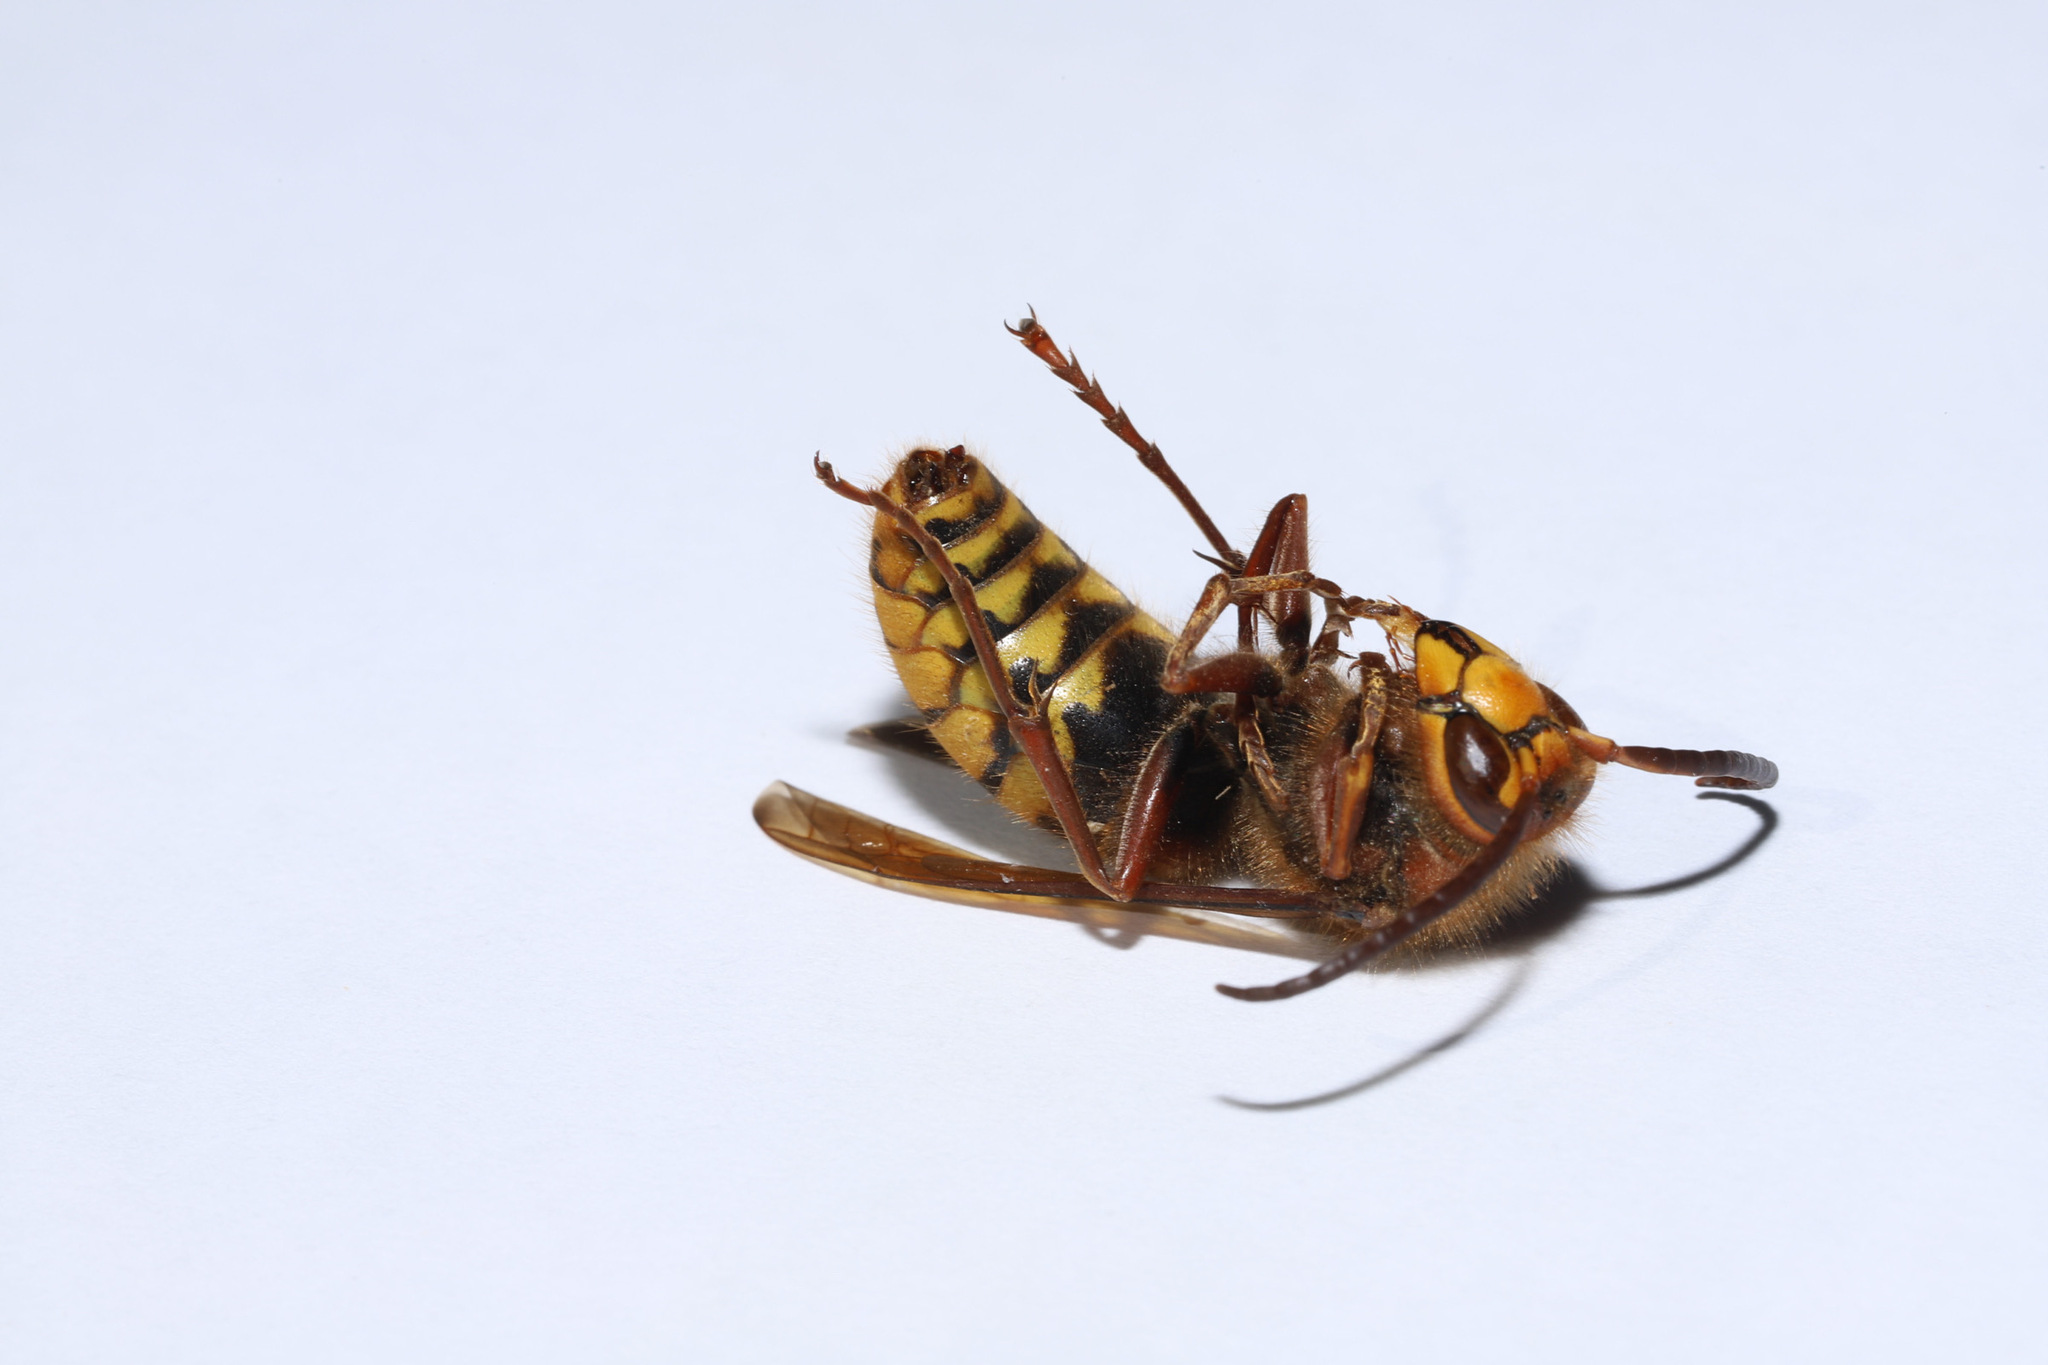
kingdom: Animalia
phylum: Arthropoda
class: Insecta
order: Hymenoptera
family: Vespidae
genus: Vespa
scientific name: Vespa crabro
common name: Hornet
